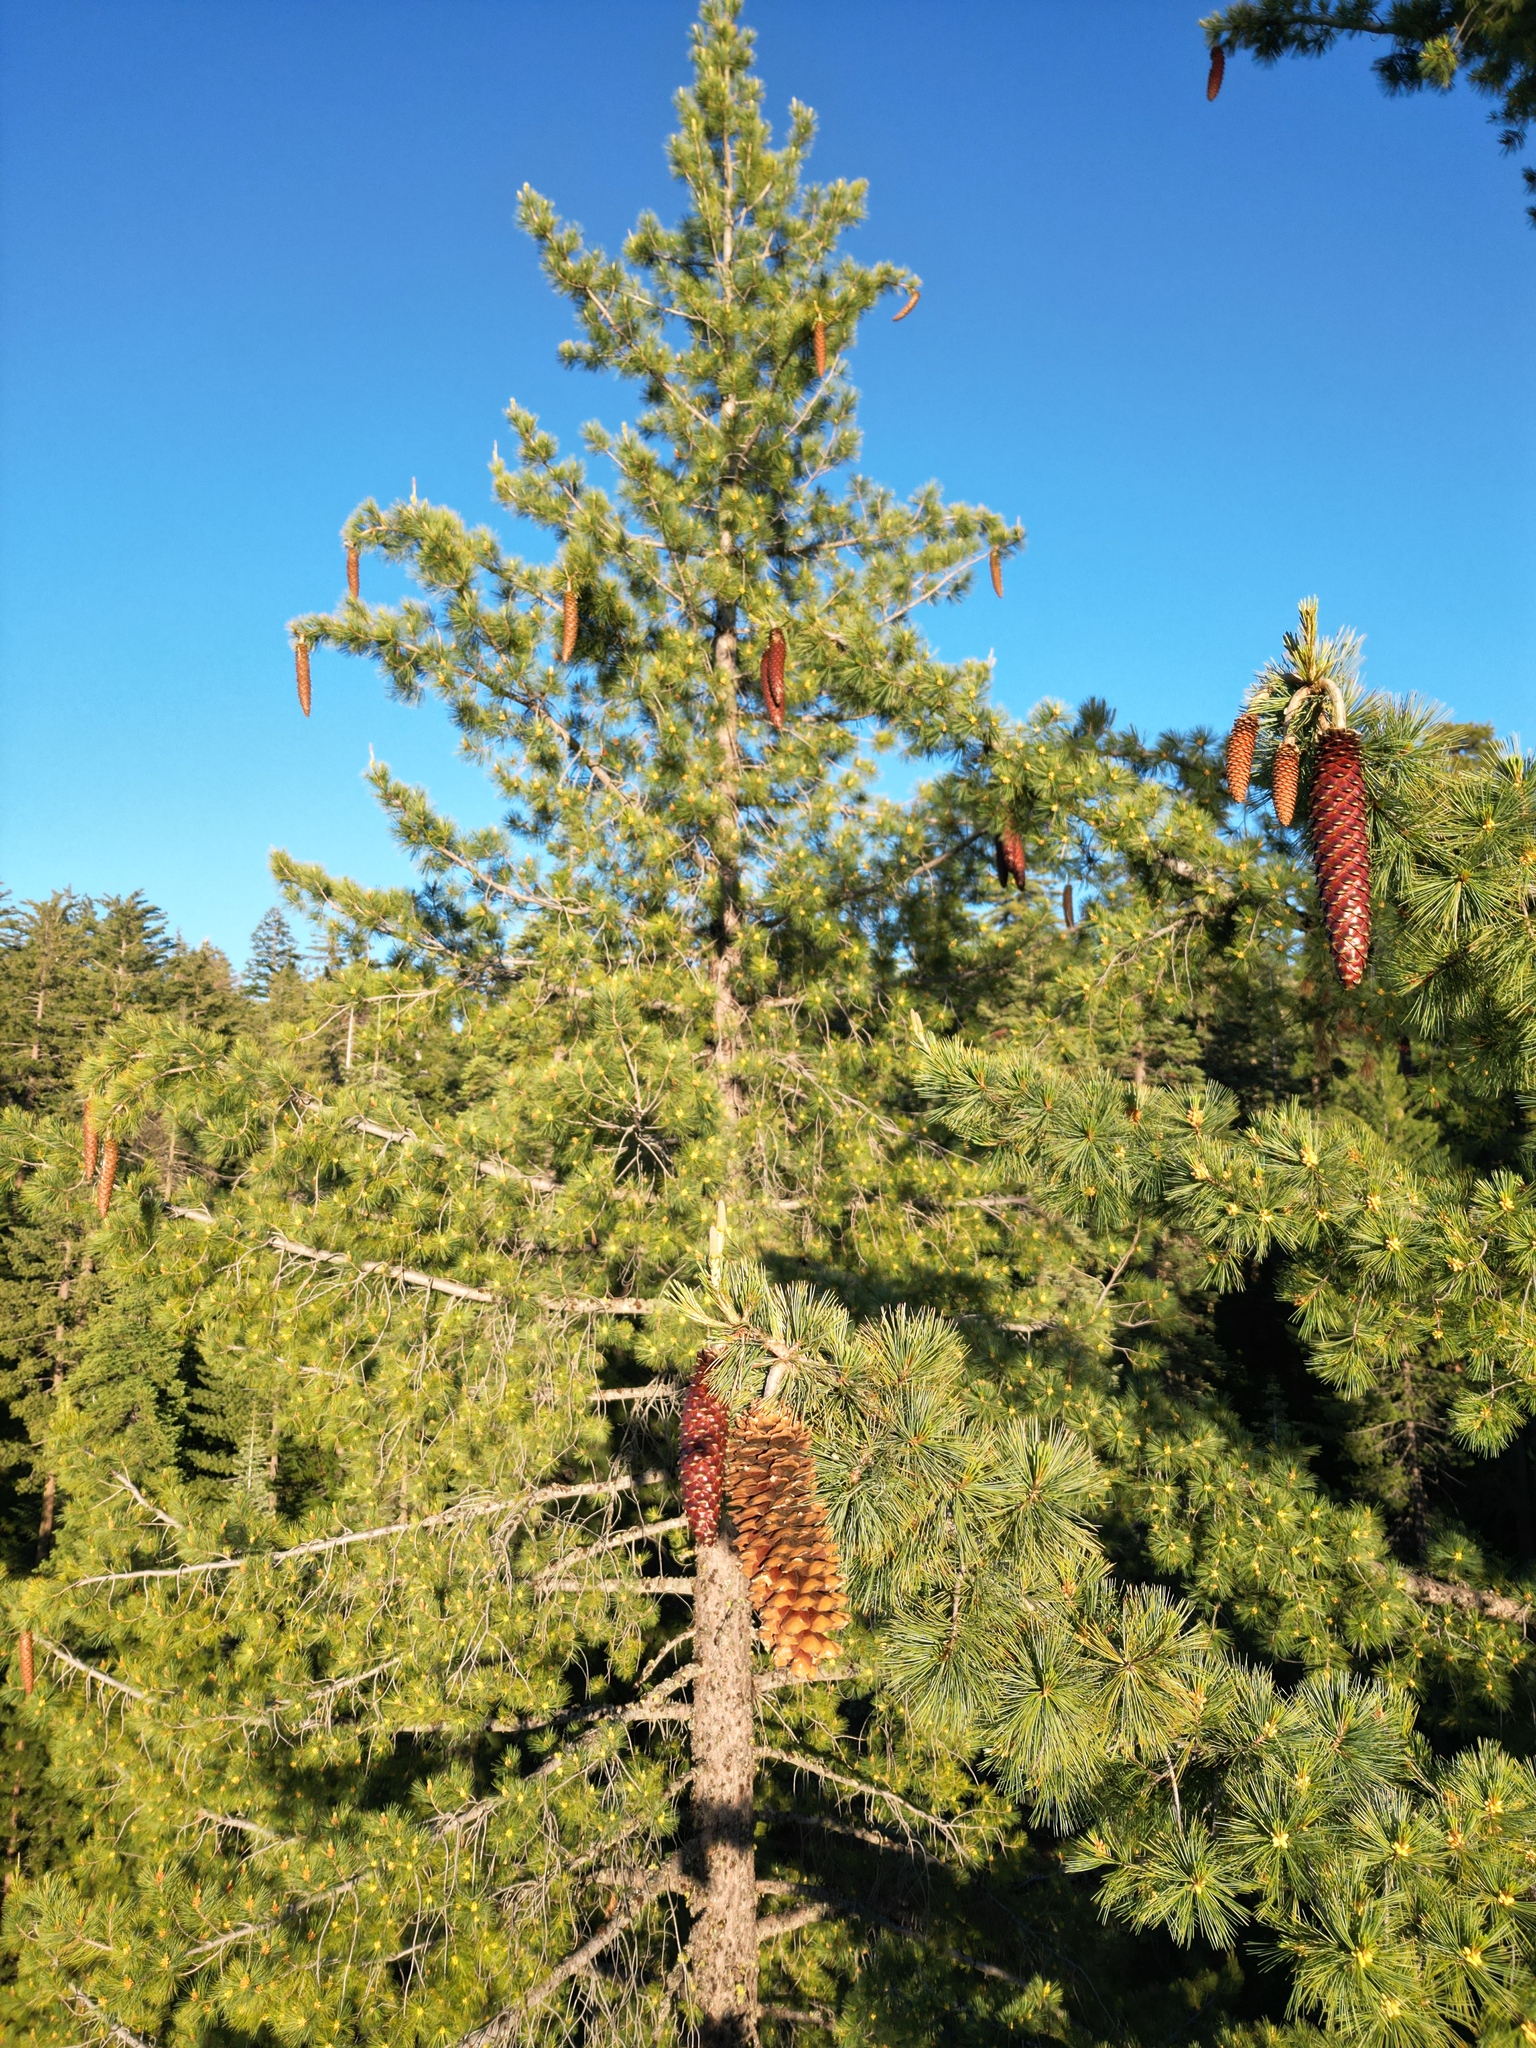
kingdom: Plantae
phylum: Tracheophyta
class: Pinopsida
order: Pinales
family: Pinaceae
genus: Pinus
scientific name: Pinus lambertiana
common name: Sugar pine
